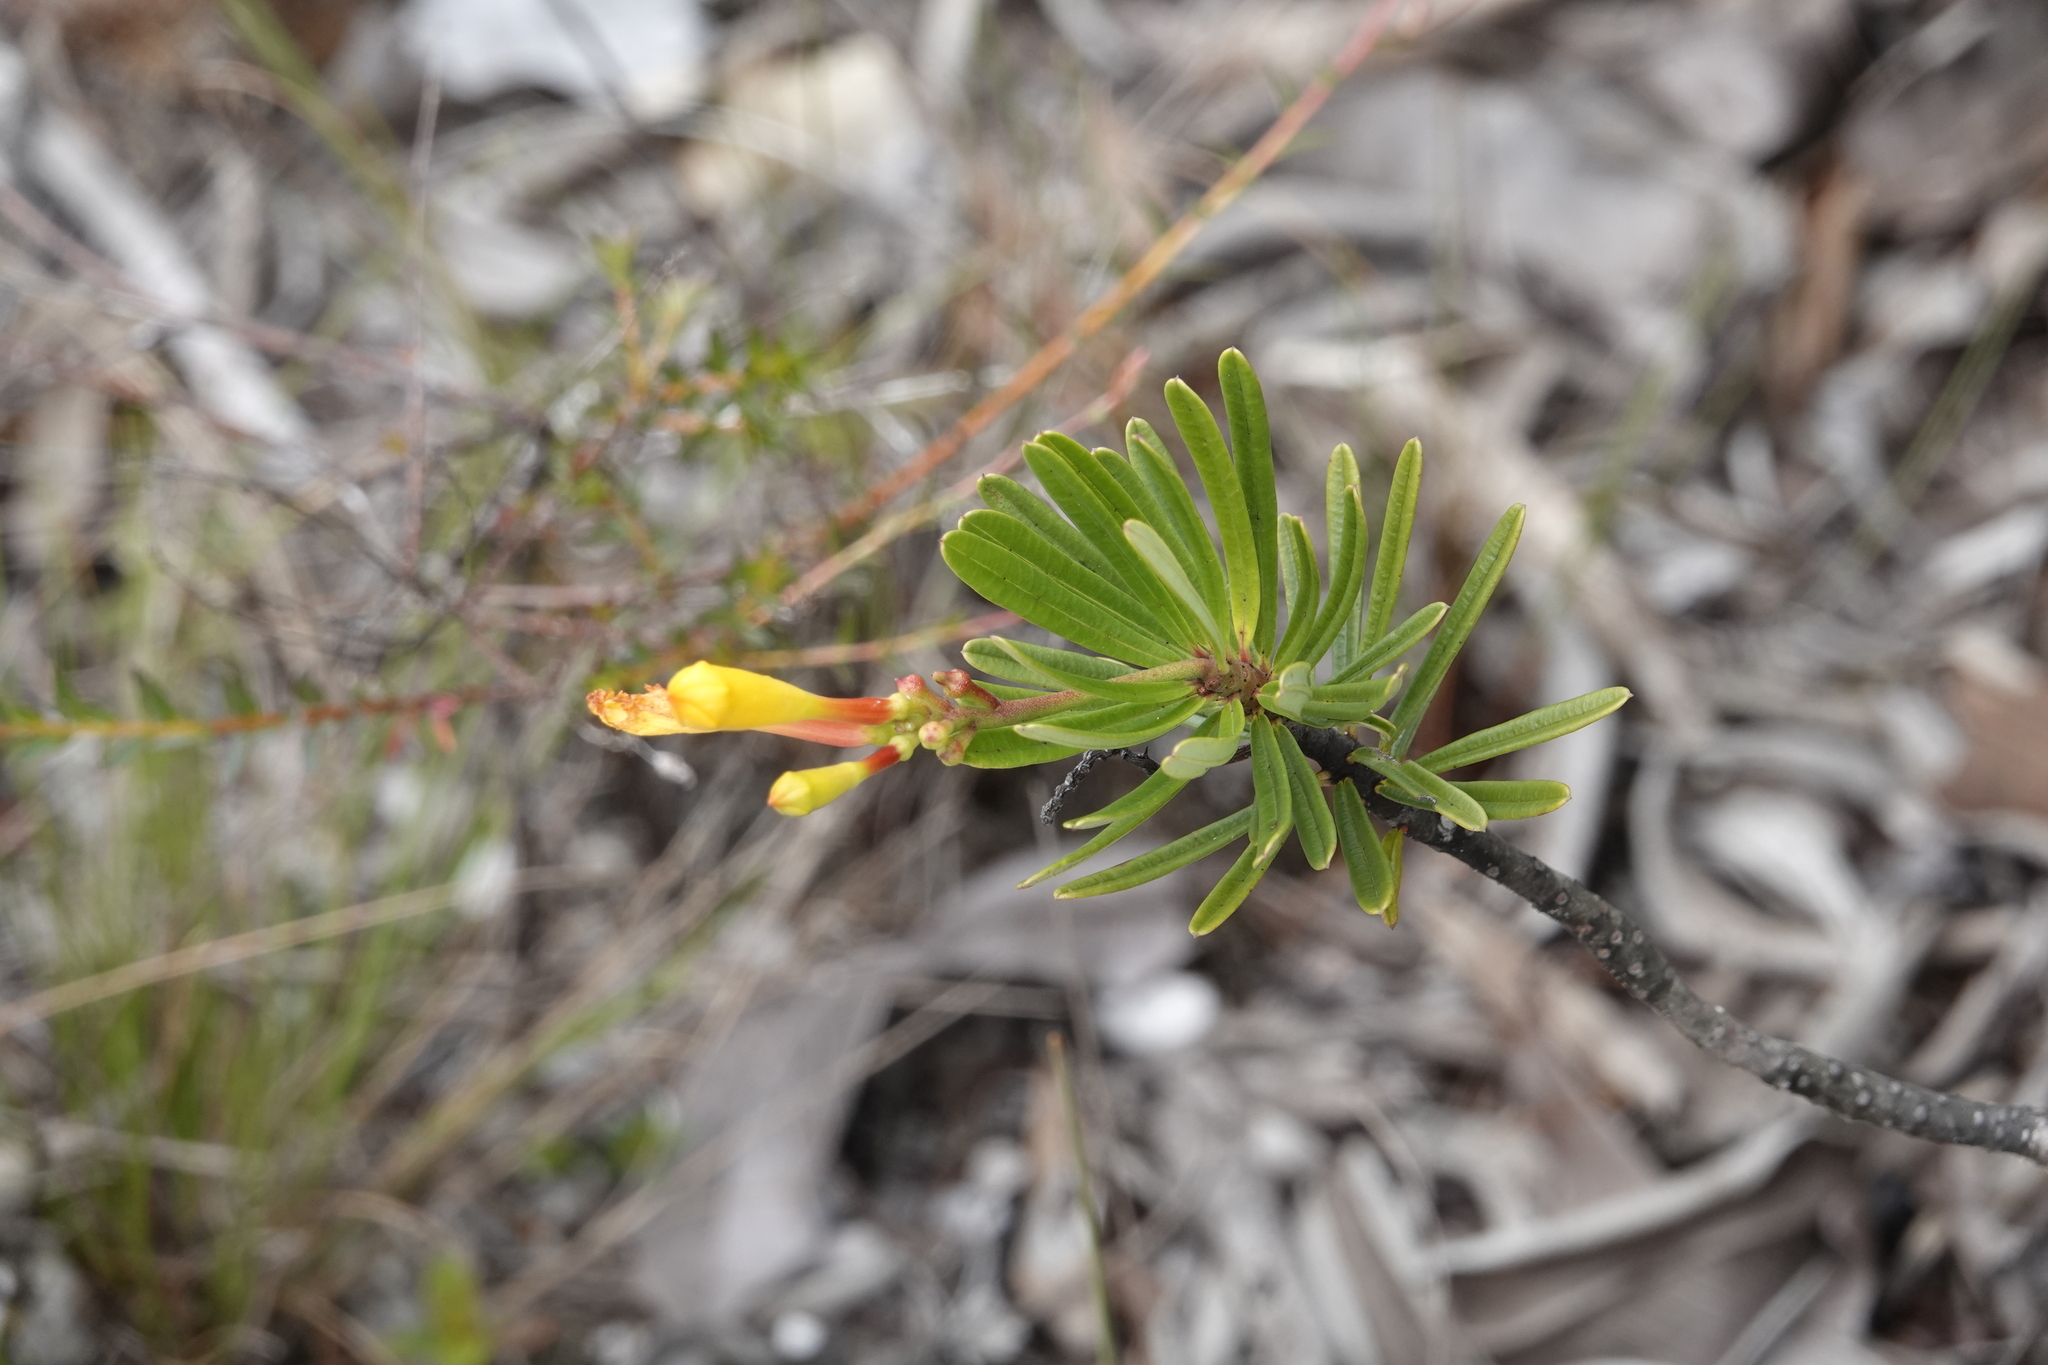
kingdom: Plantae
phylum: Tracheophyta
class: Magnoliopsida
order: Gentianales
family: Apocynaceae
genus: Mandevilla
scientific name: Mandevilla benthamii
